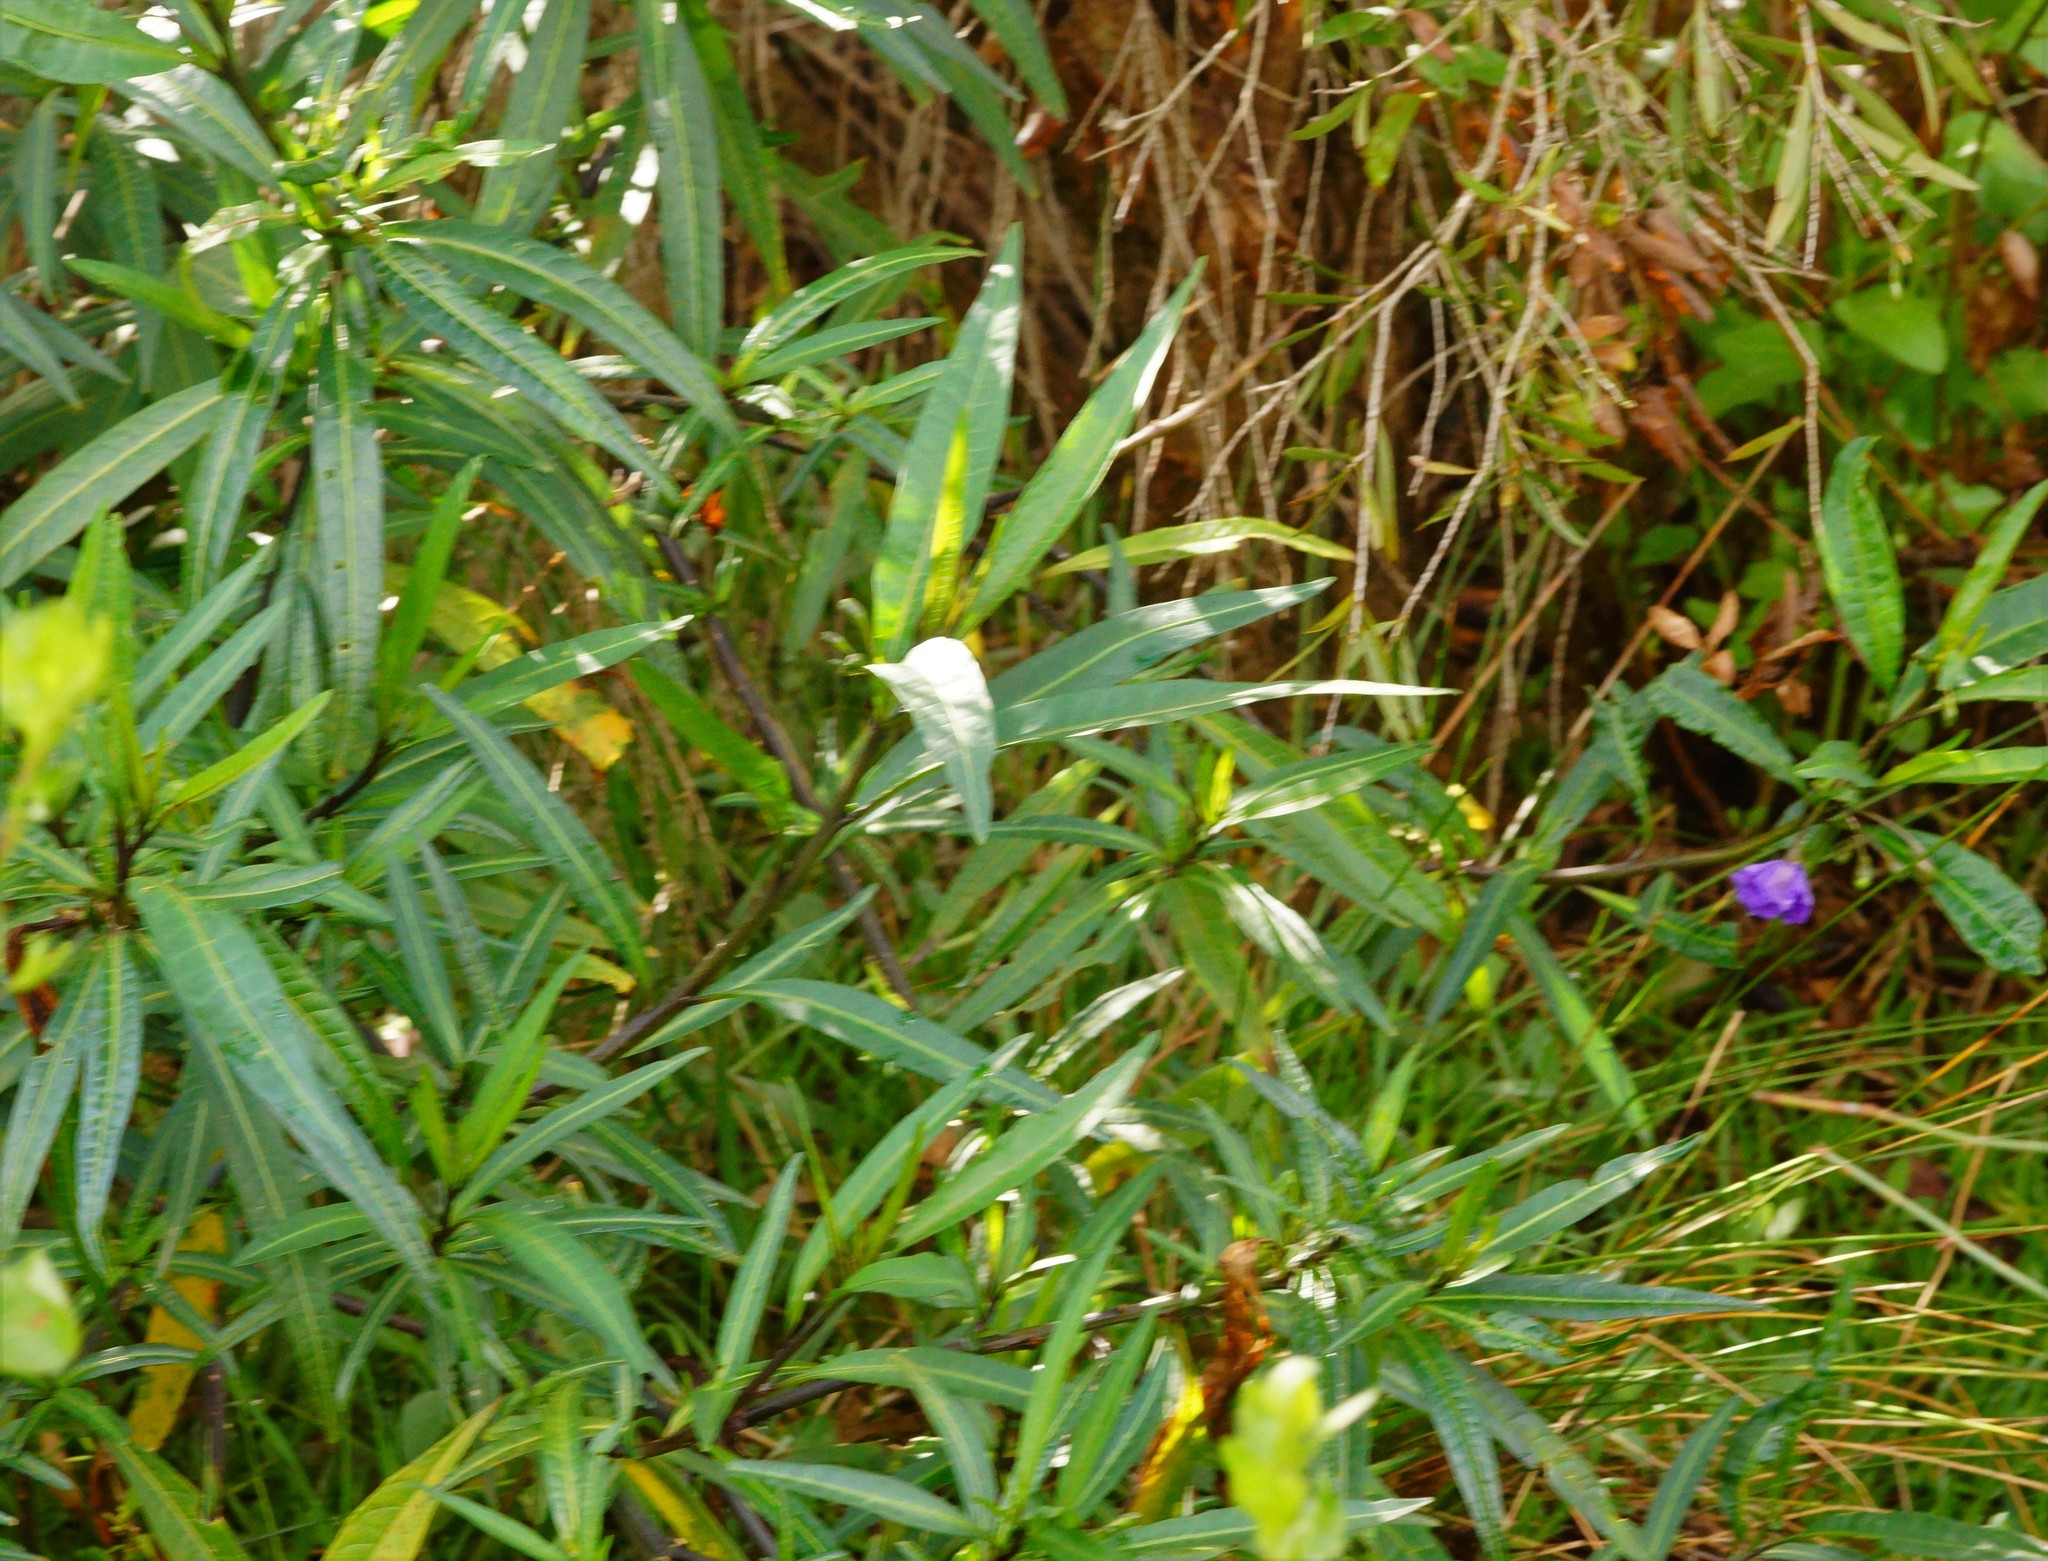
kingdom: Plantae
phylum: Tracheophyta
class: Magnoliopsida
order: Solanales
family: Solanaceae
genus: Solanum
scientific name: Solanum laciniatum
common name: Kangaroo-apple
